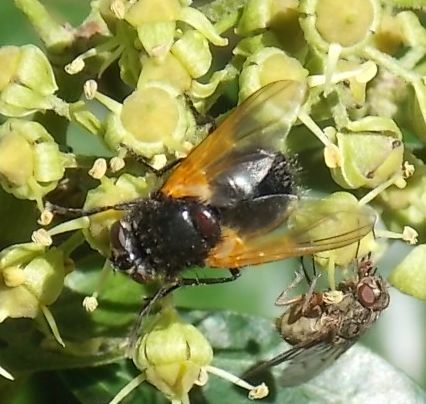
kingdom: Animalia
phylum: Arthropoda
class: Insecta
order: Diptera
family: Muscidae
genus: Mesembrina
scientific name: Mesembrina meridiana
